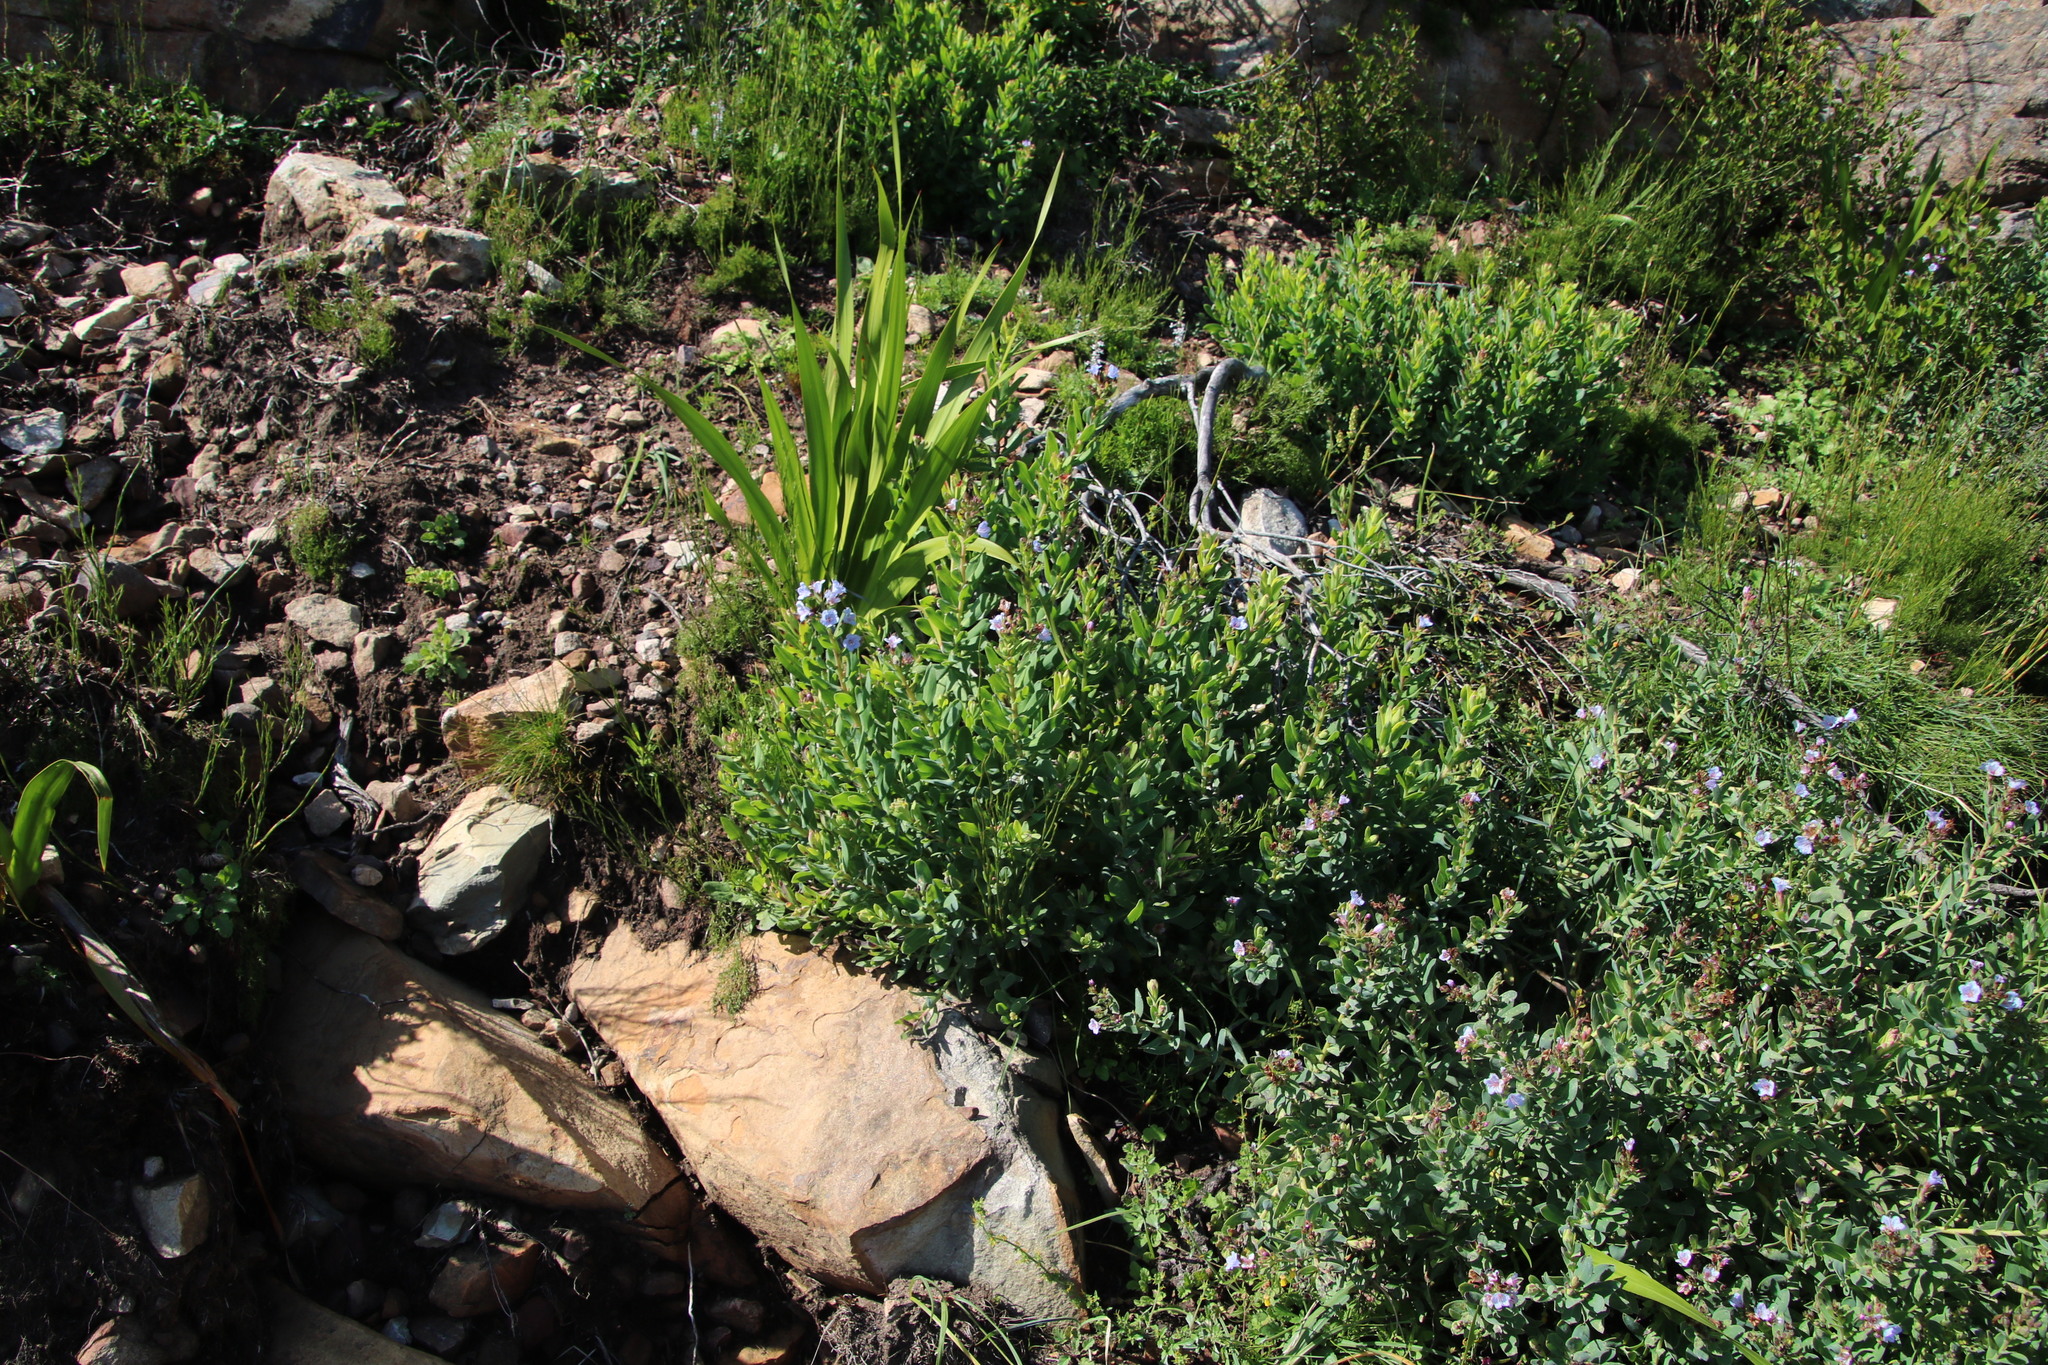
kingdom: Plantae
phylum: Tracheophyta
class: Magnoliopsida
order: Boraginales
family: Boraginaceae
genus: Lobostemon
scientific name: Lobostemon glaucophyllus
